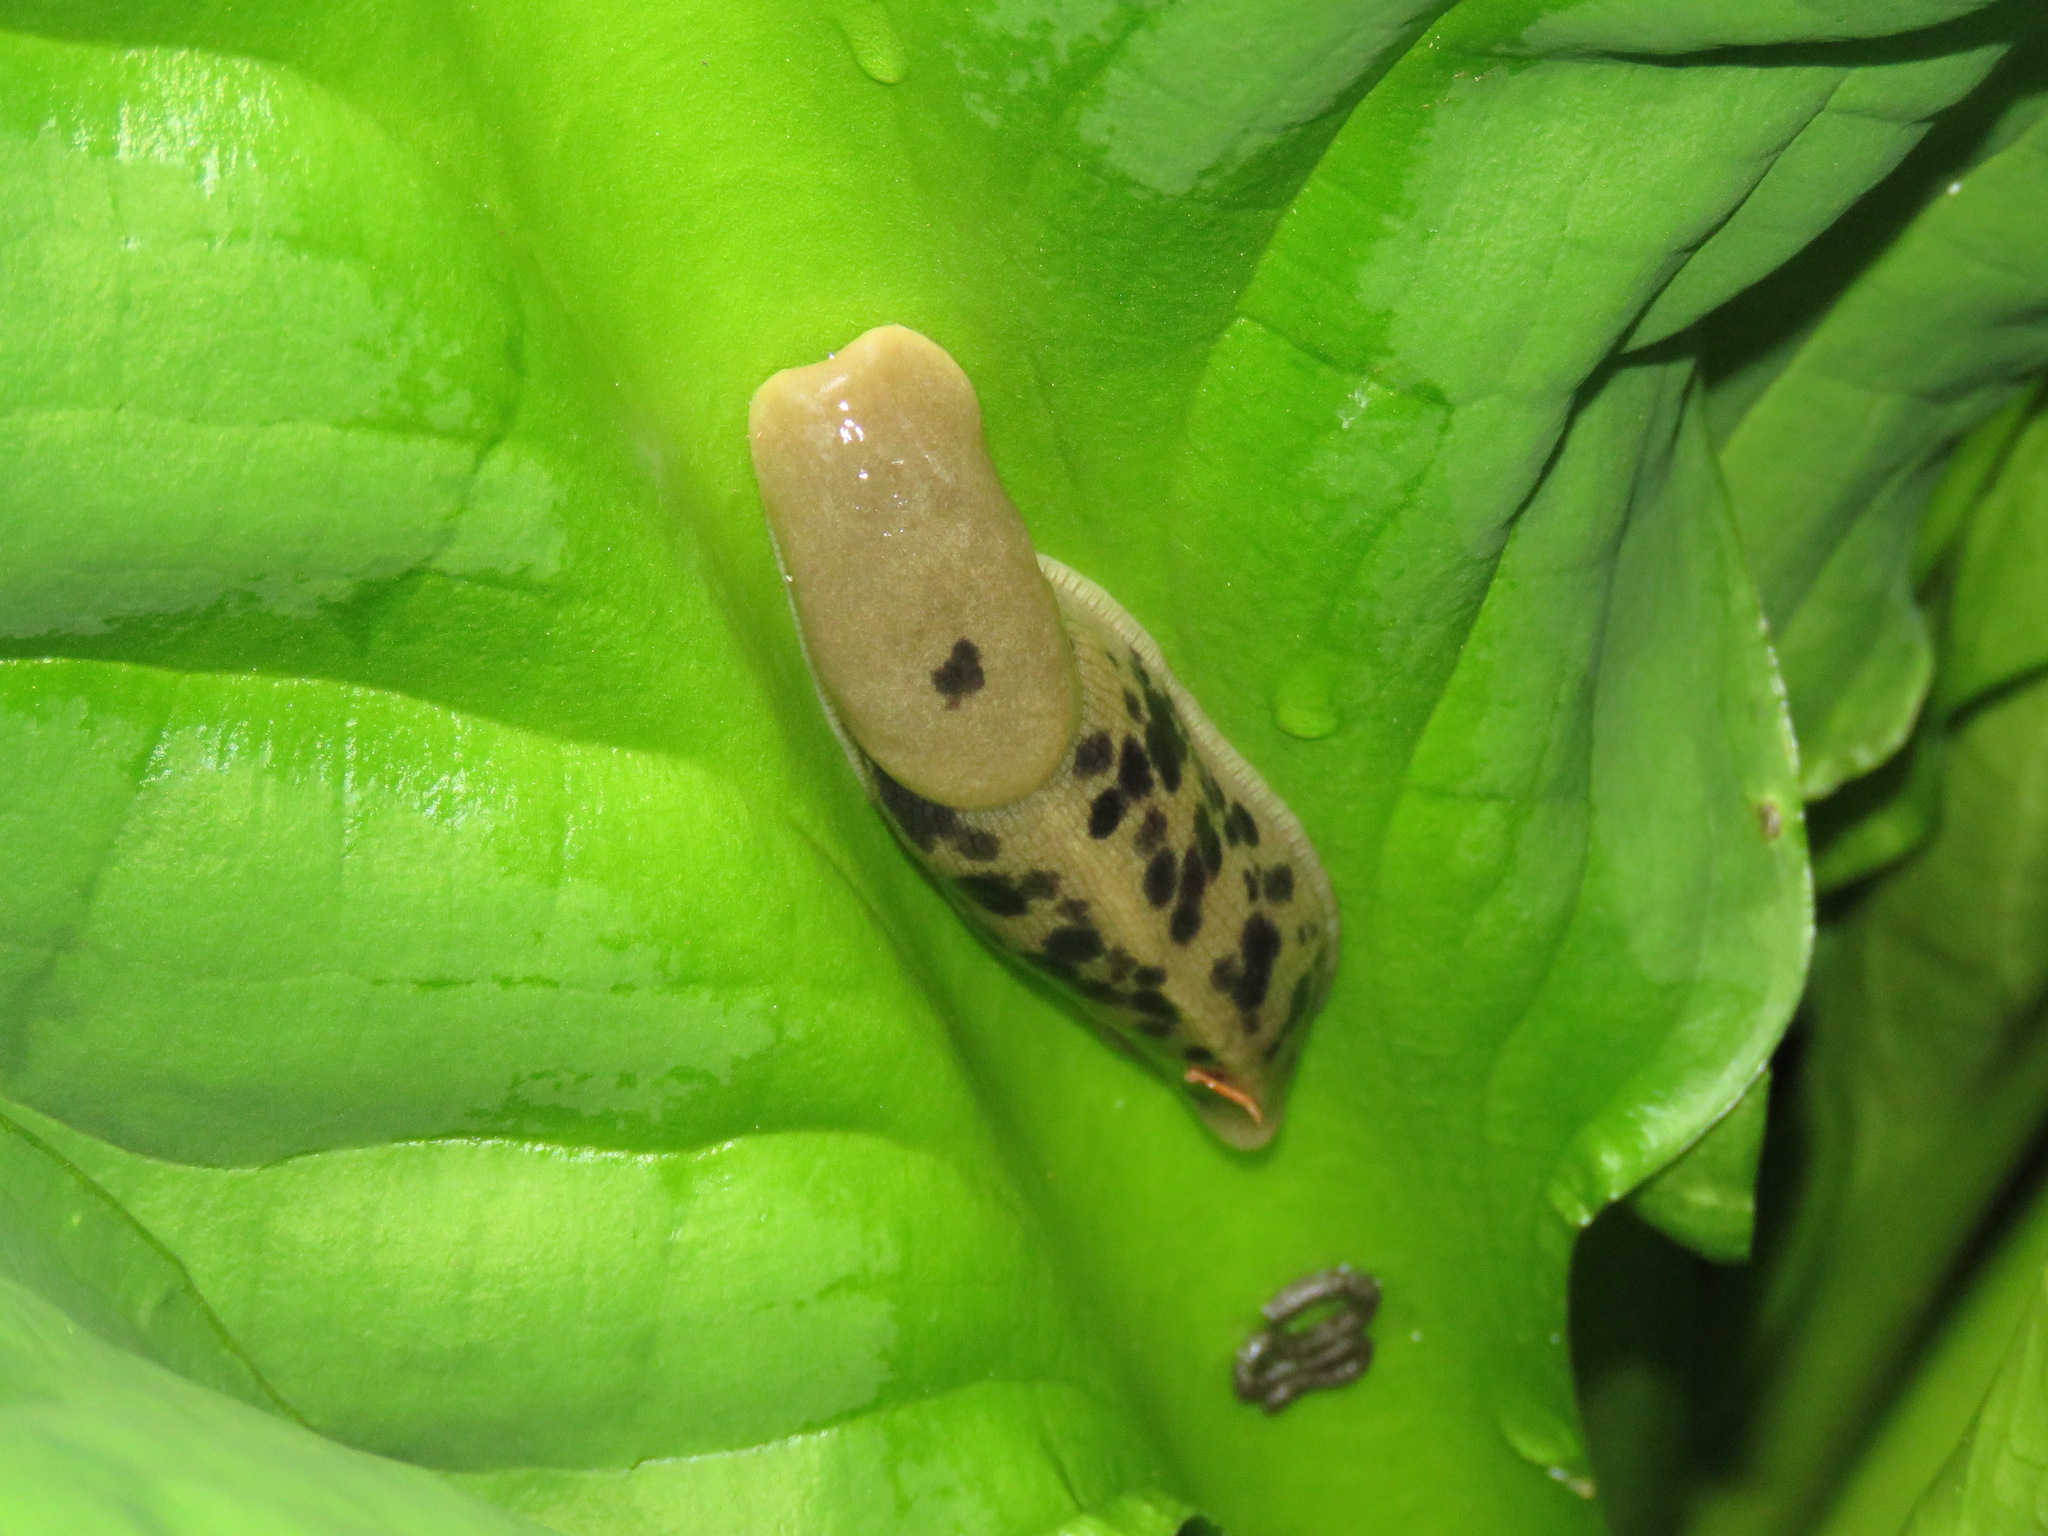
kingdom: Animalia
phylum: Mollusca
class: Gastropoda
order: Stylommatophora
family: Ariolimacidae
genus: Ariolimax
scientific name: Ariolimax columbianus
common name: Pacific banana slug
